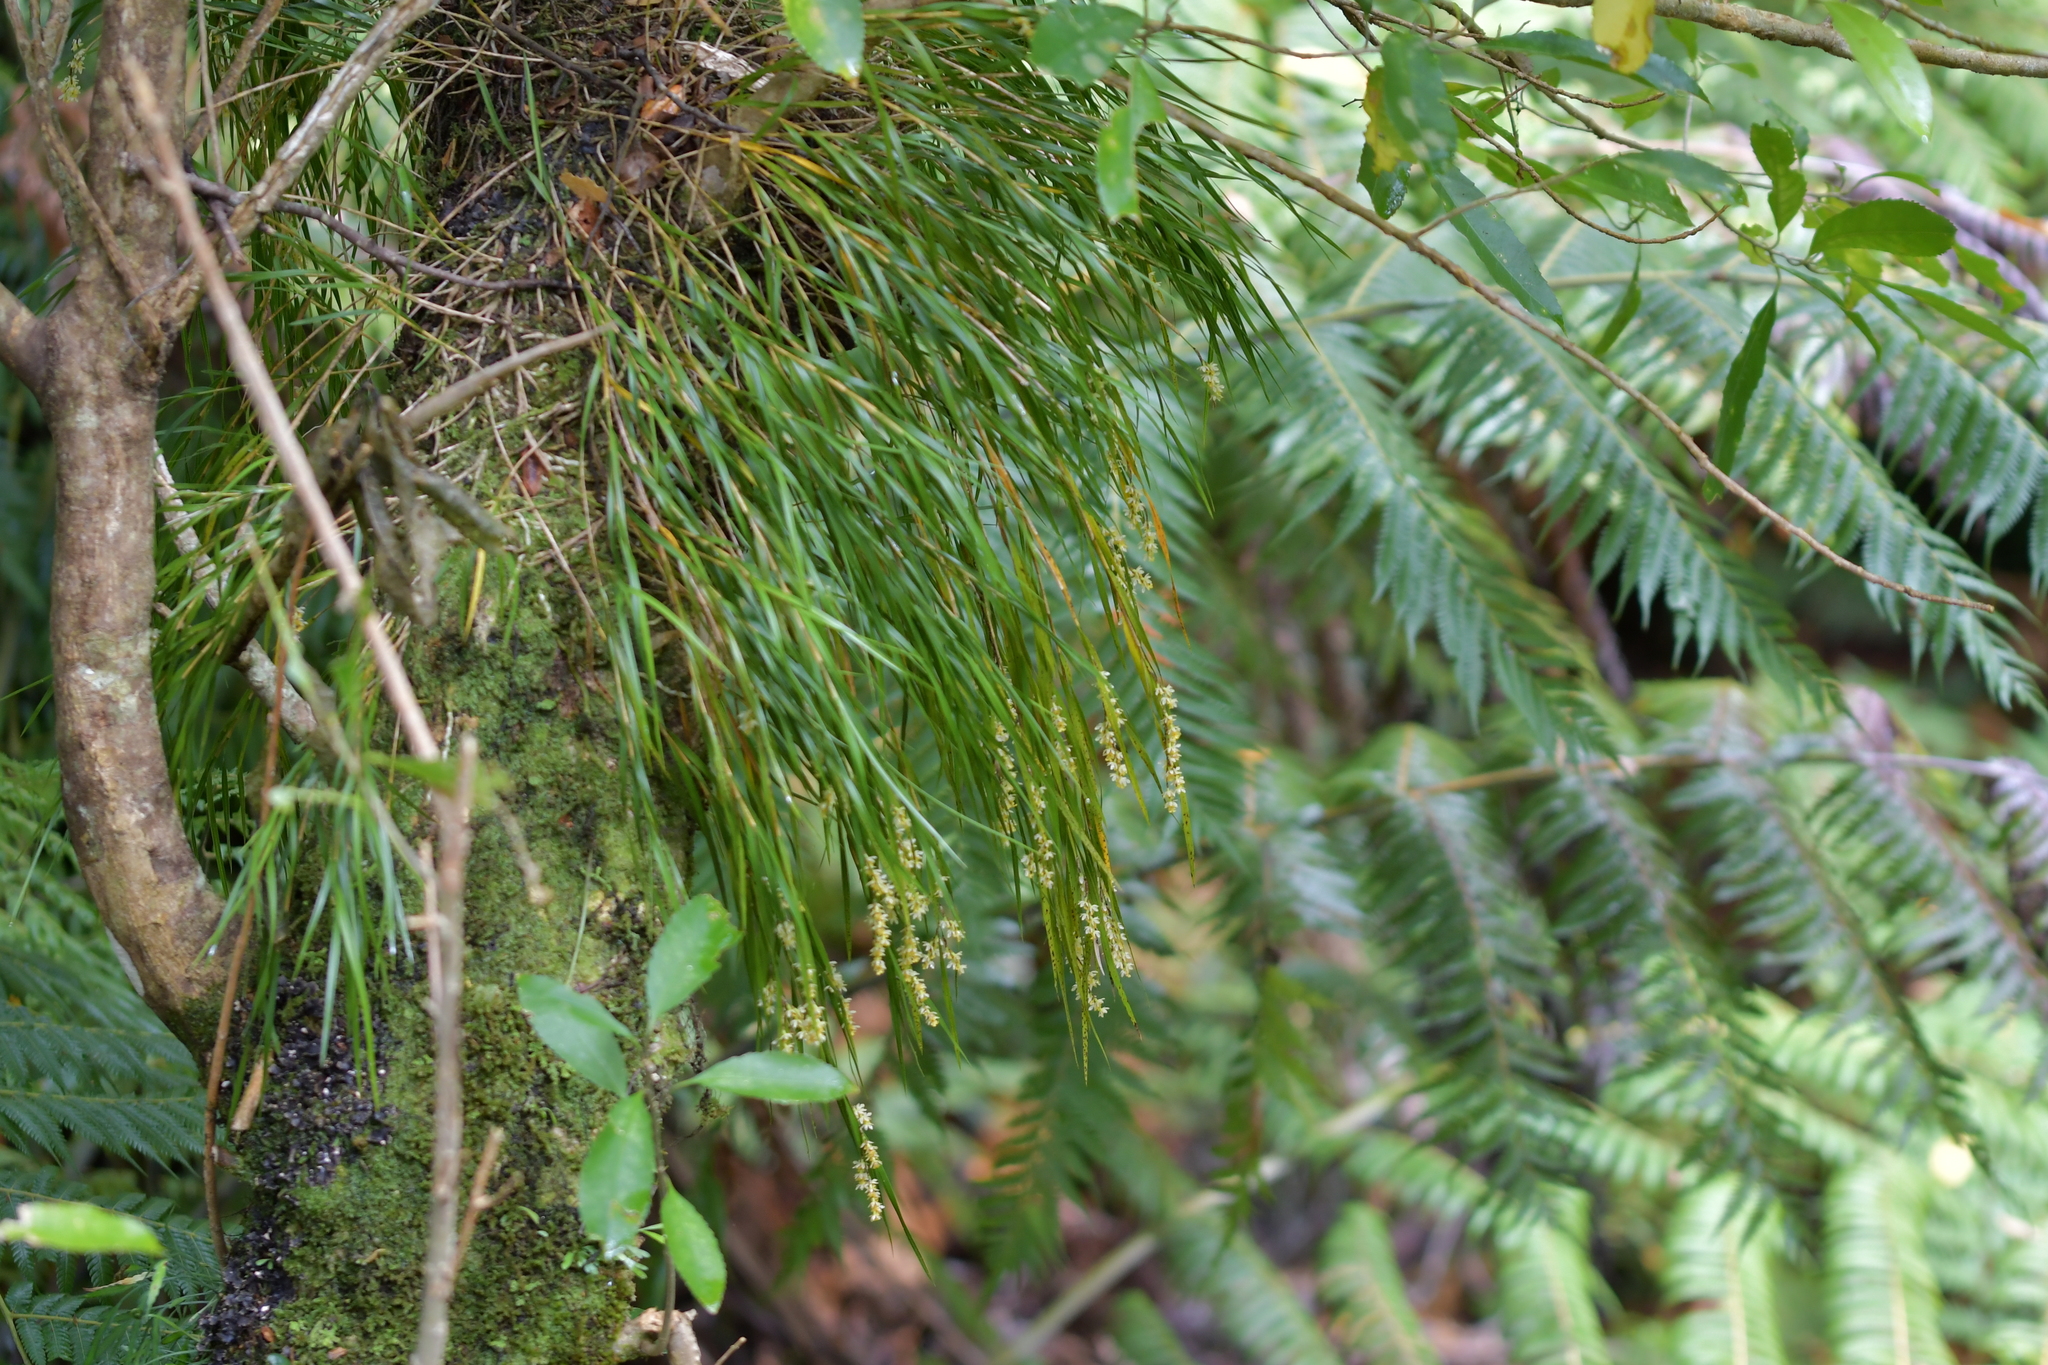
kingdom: Plantae
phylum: Tracheophyta
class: Liliopsida
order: Asparagales
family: Orchidaceae
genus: Earina
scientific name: Earina mucronata
